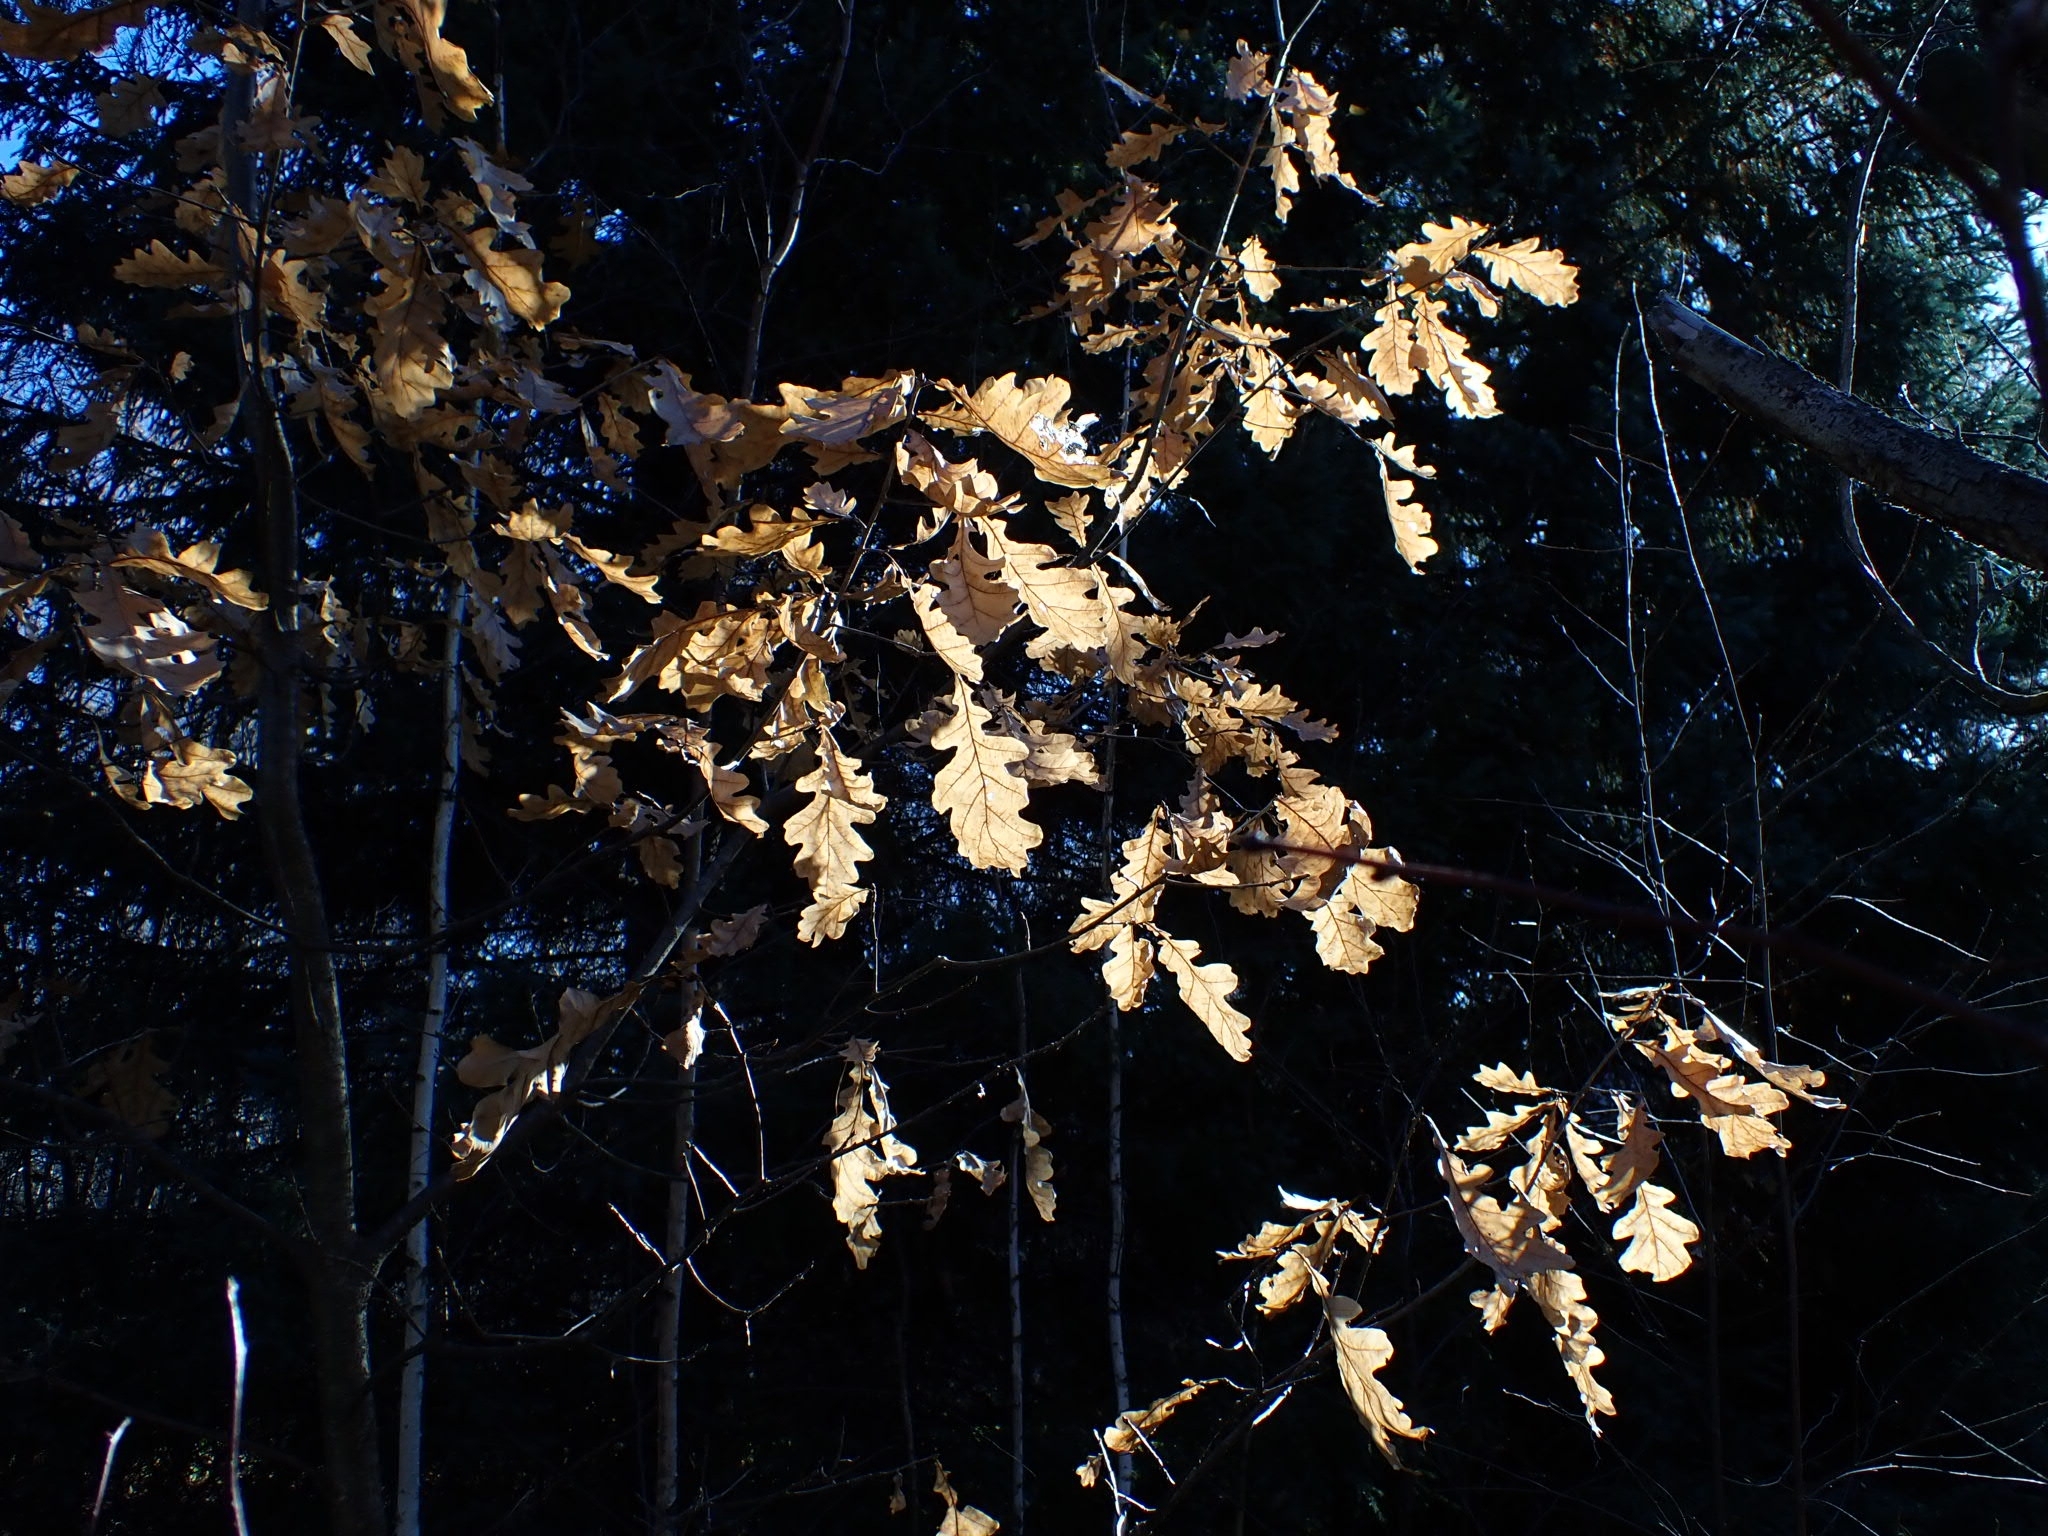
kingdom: Plantae
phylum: Tracheophyta
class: Magnoliopsida
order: Fagales
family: Fagaceae
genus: Quercus
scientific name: Quercus robur
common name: Pedunculate oak
